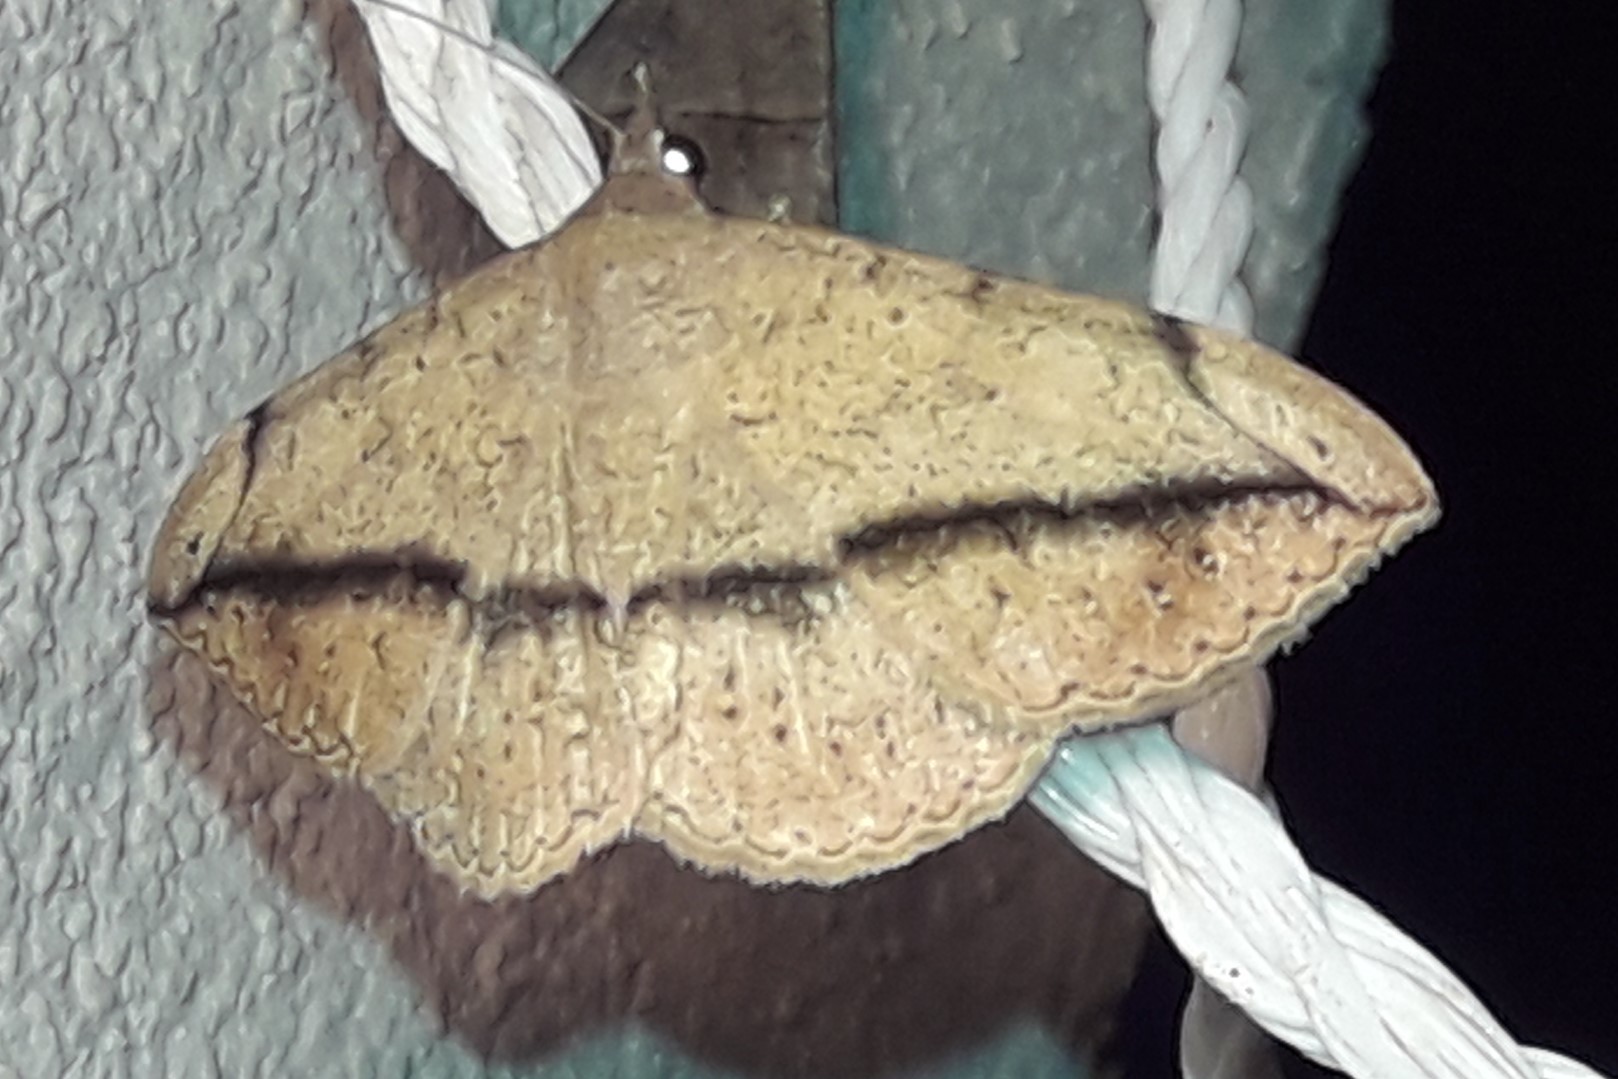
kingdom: Animalia
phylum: Arthropoda
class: Insecta
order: Lepidoptera
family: Erebidae
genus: Anticarsia
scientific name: Anticarsia gemmatalis
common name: Cutworm moth
